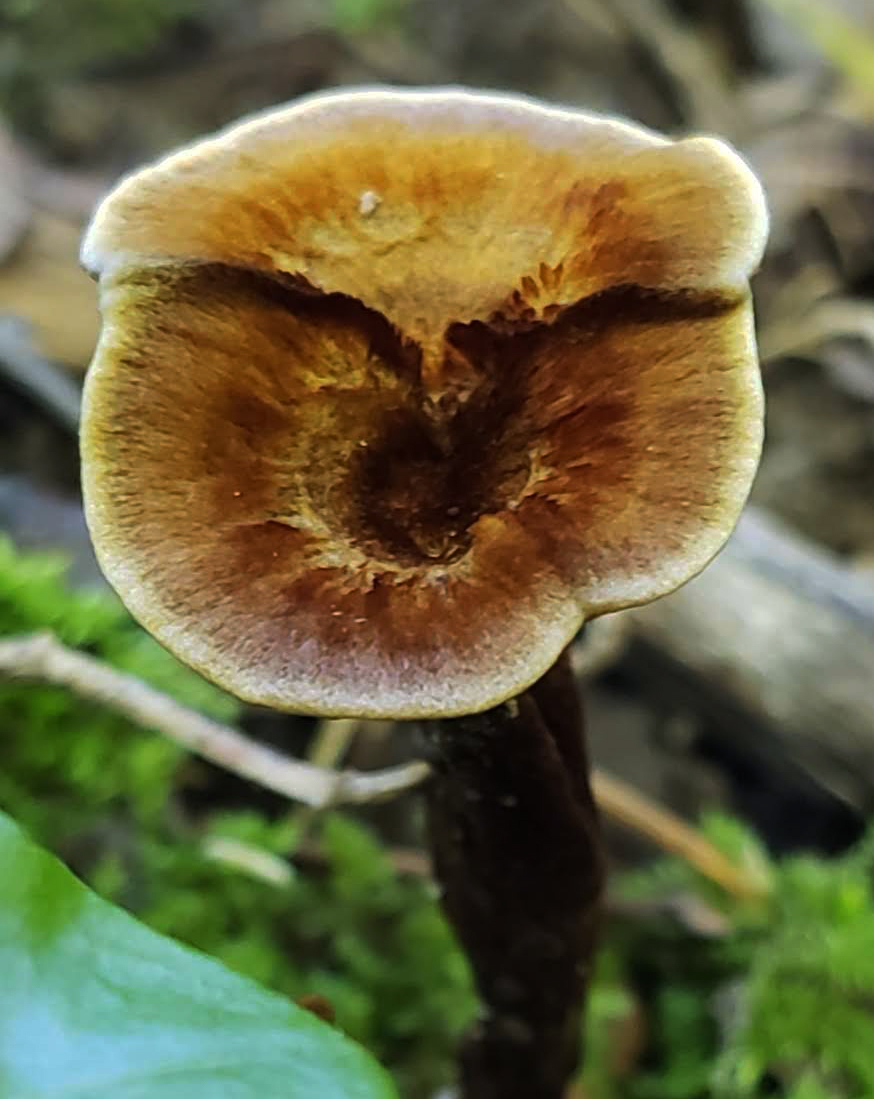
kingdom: Fungi
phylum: Basidiomycota
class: Agaricomycetes
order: Hymenochaetales
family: Hymenochaetaceae
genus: Coltricia
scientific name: Coltricia cinnamomea
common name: Shiny cinnamon polypore
